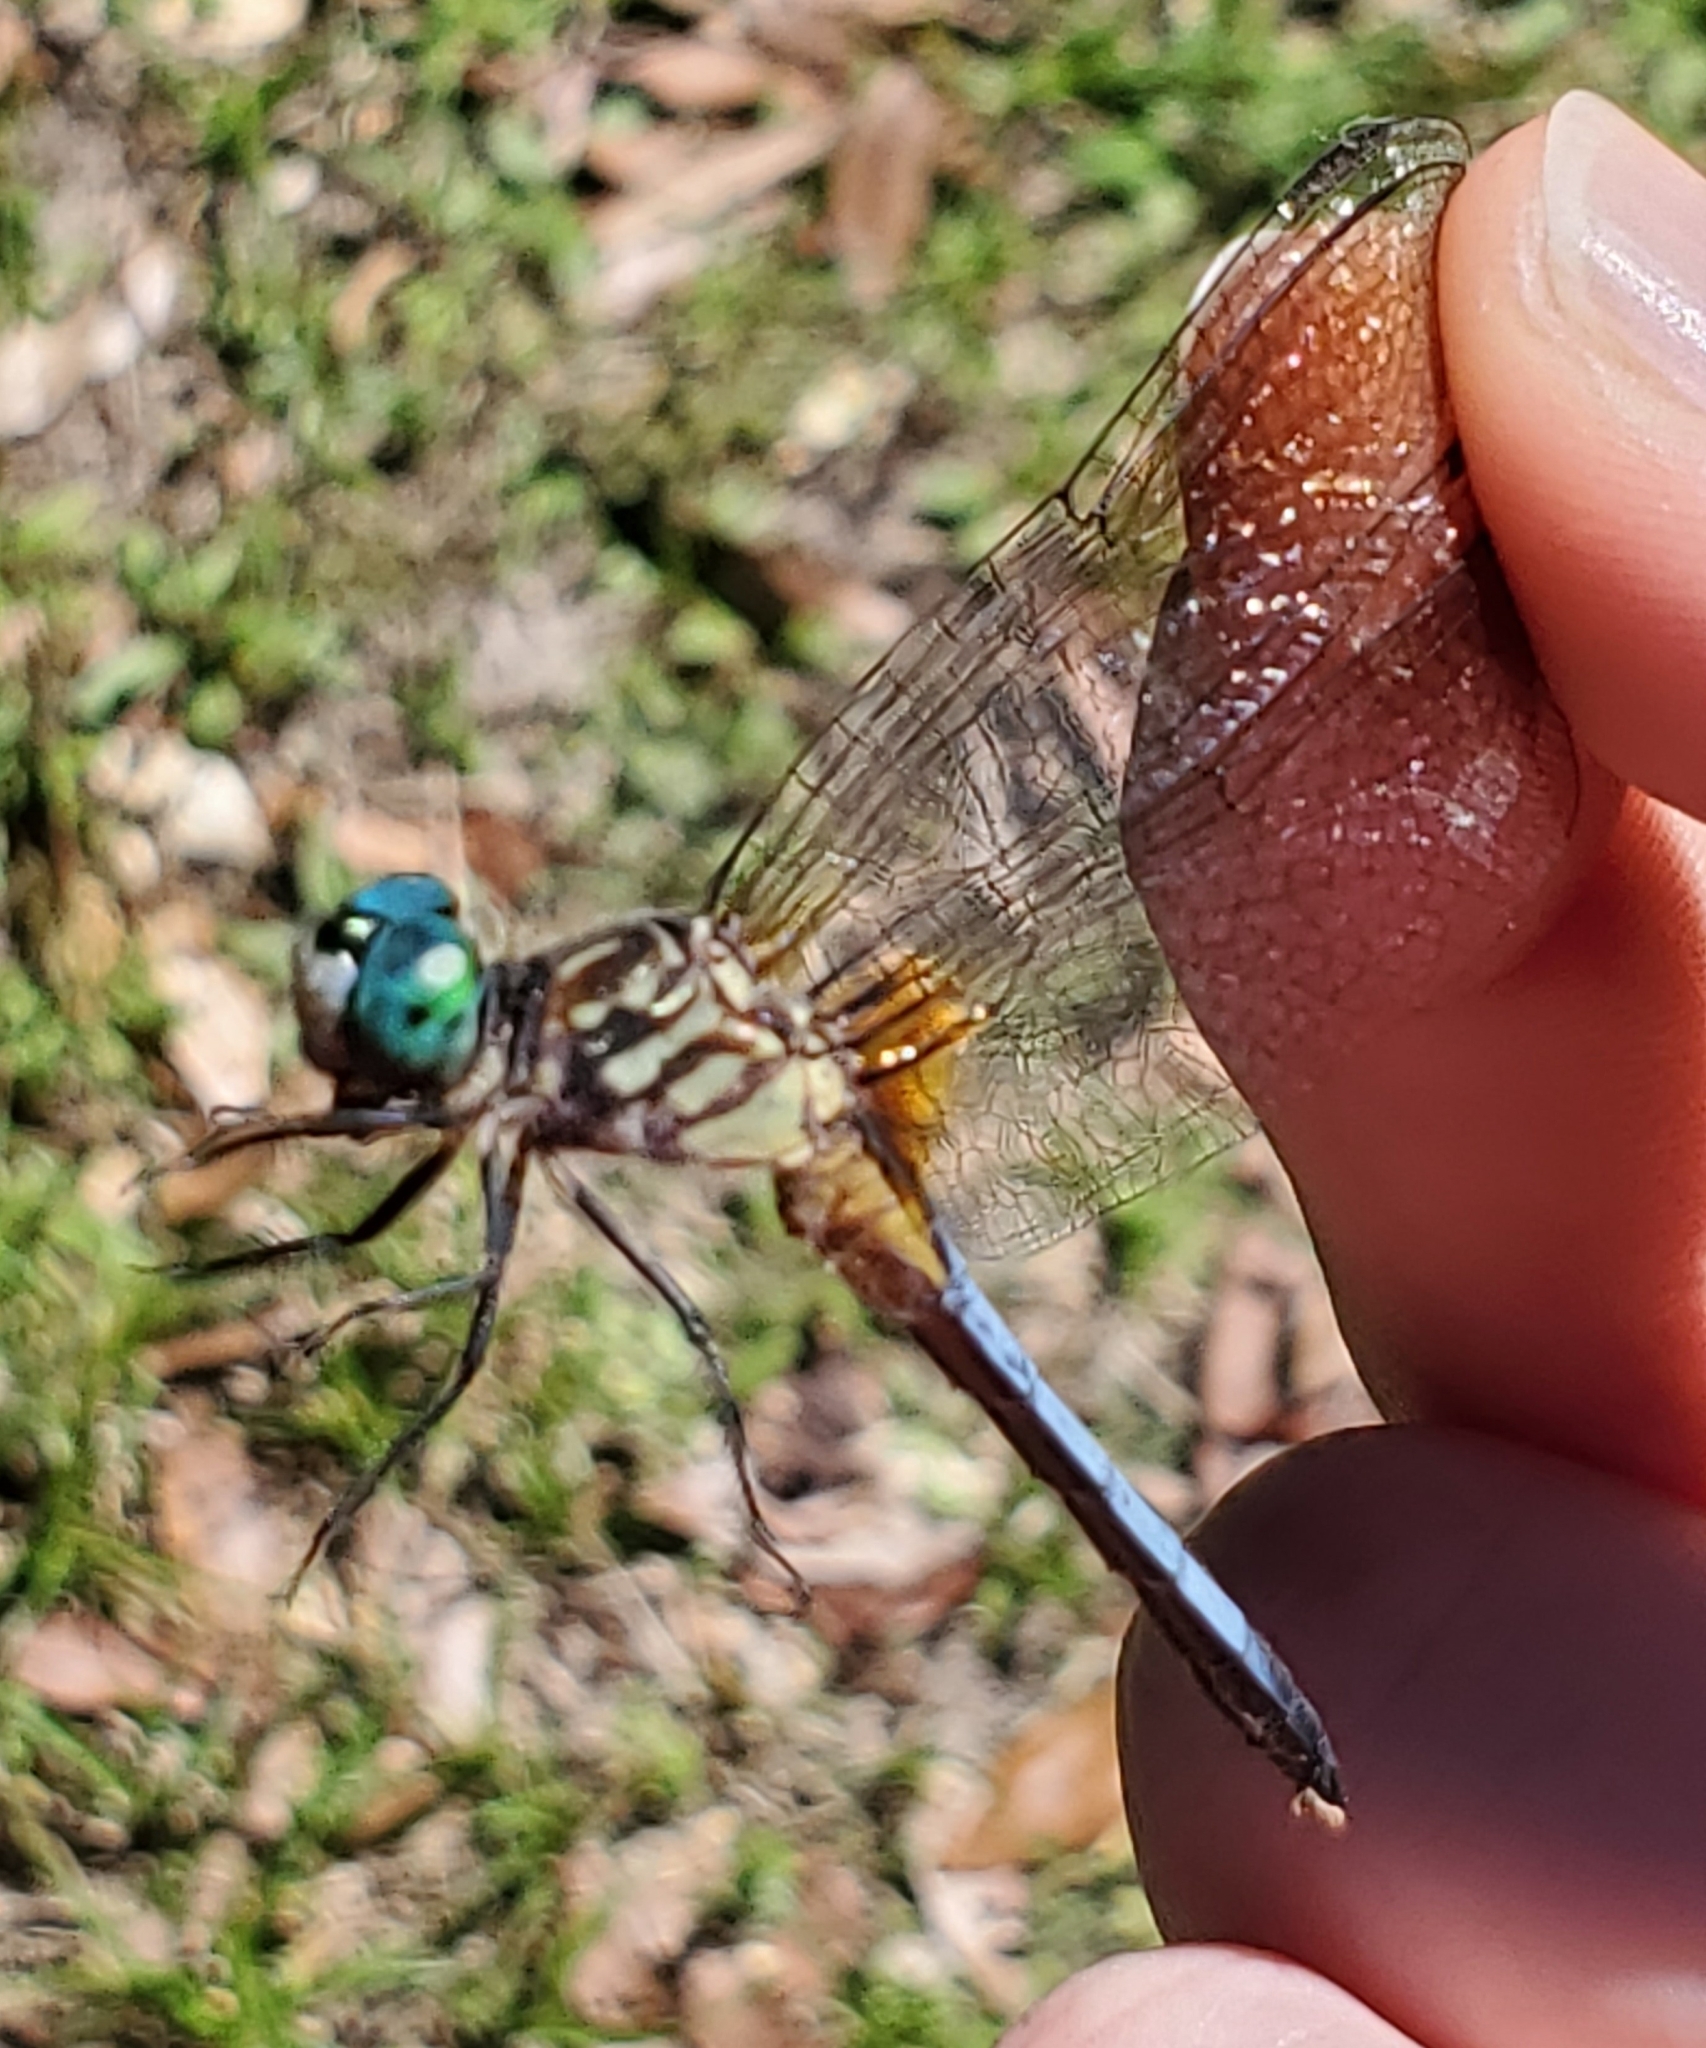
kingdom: Animalia
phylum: Arthropoda
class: Insecta
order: Odonata
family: Libellulidae
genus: Pachydiplax
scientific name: Pachydiplax longipennis
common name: Blue dasher
